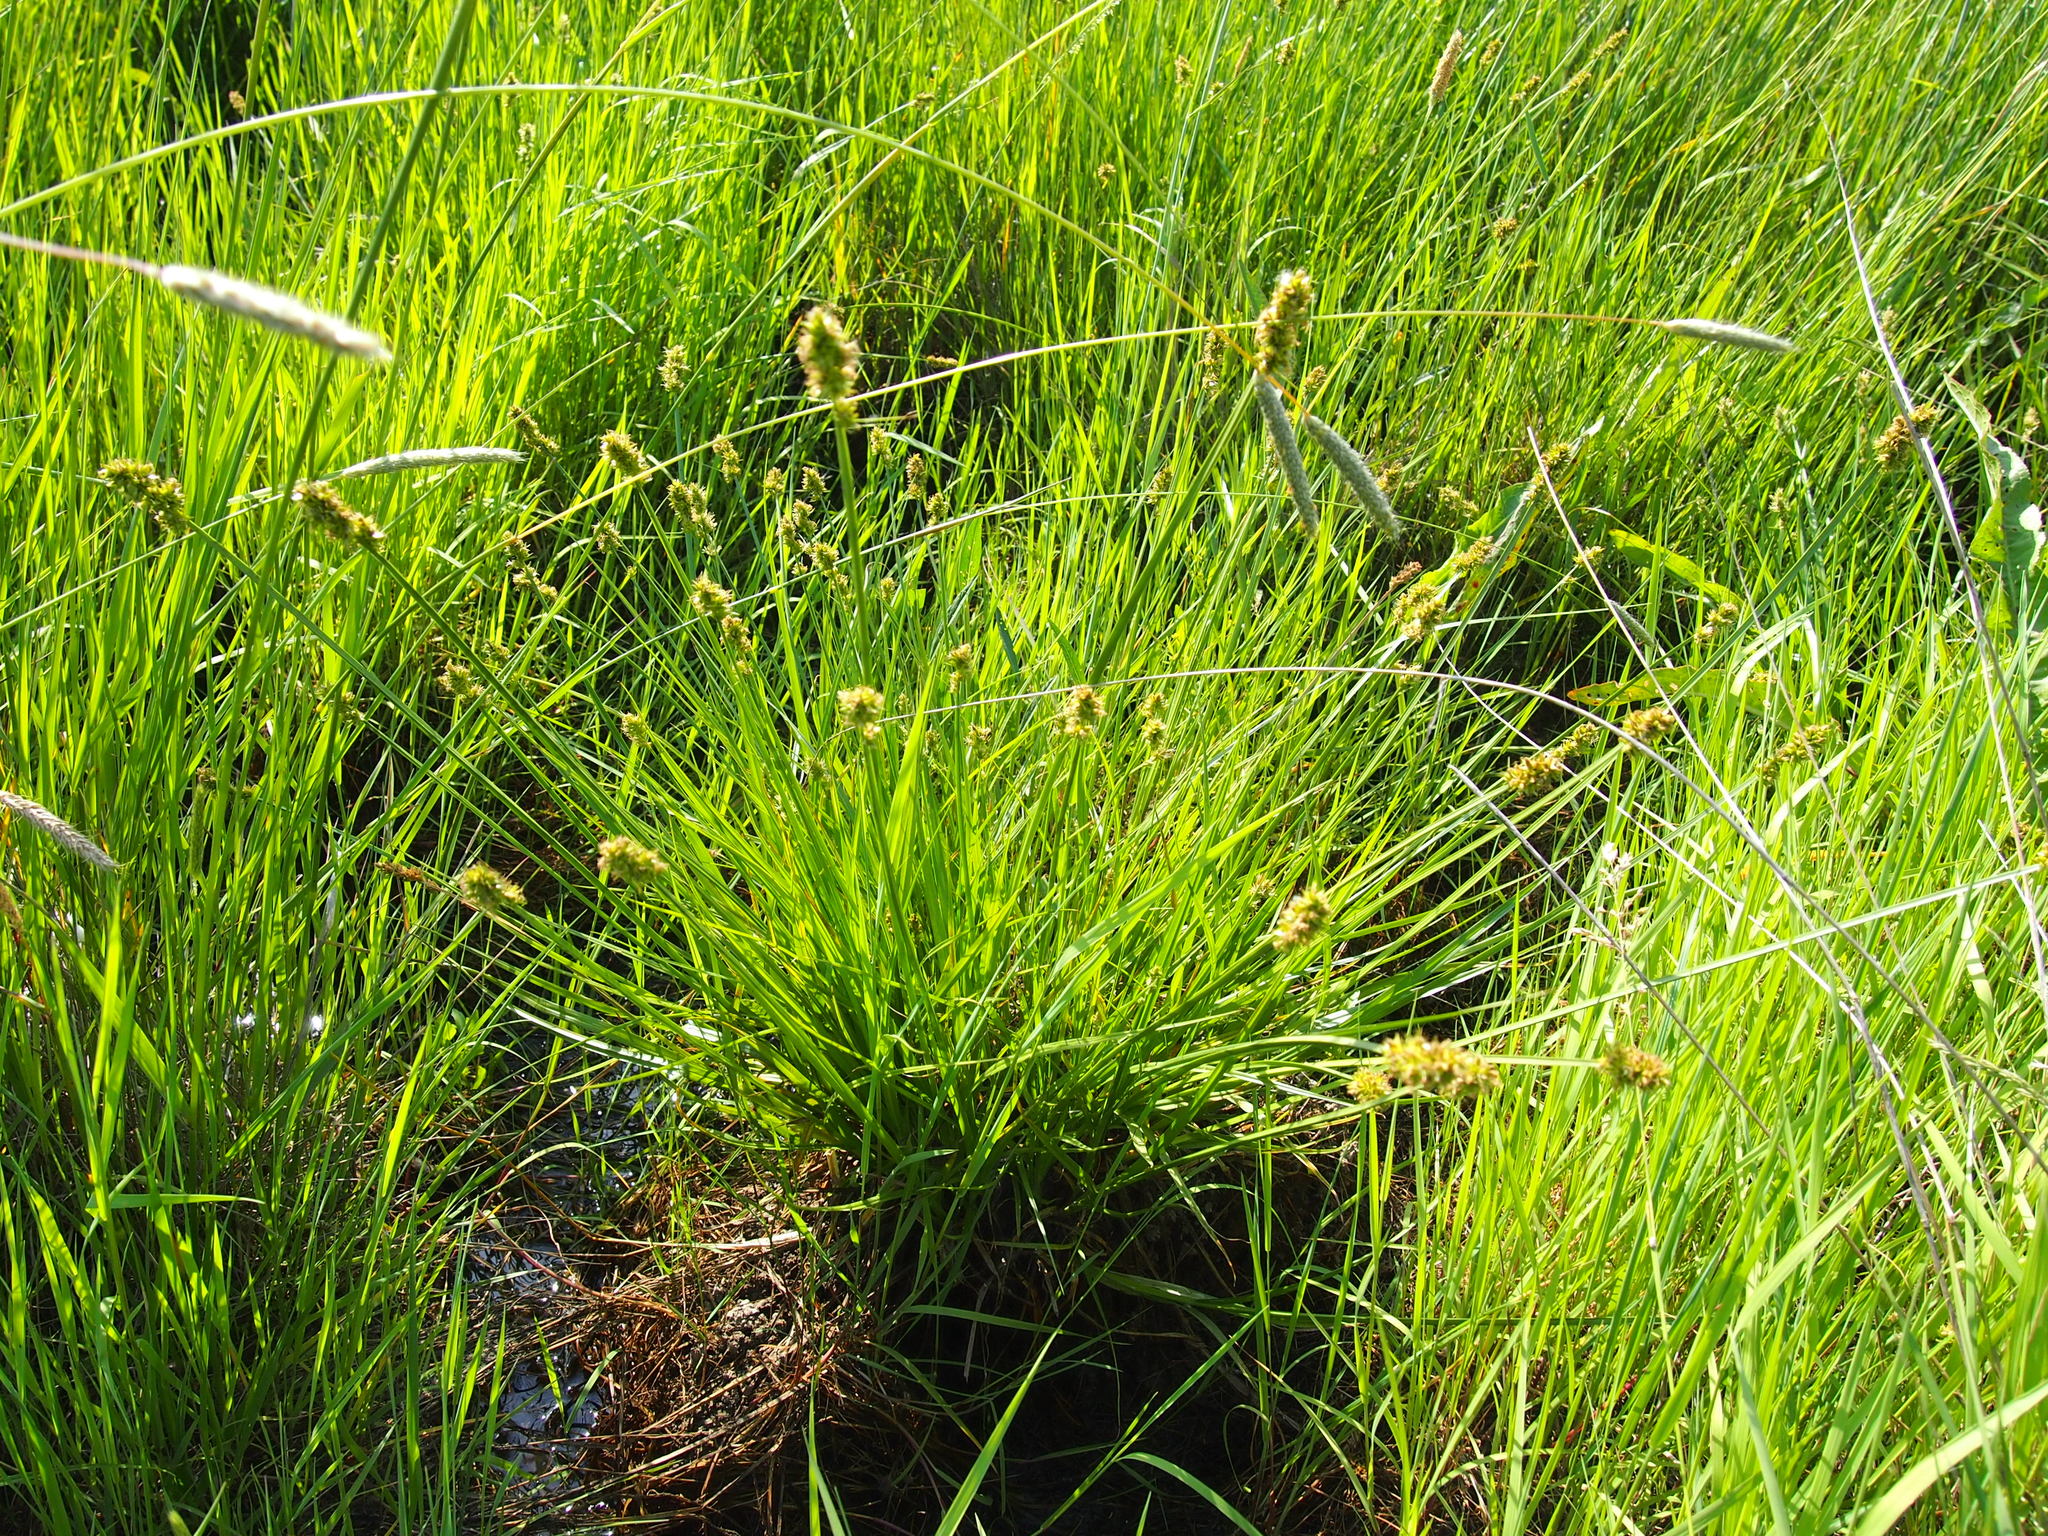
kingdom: Plantae
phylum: Tracheophyta
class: Liliopsida
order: Poales
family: Cyperaceae
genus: Carex
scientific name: Carex otrubae
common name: False fox-sedge
